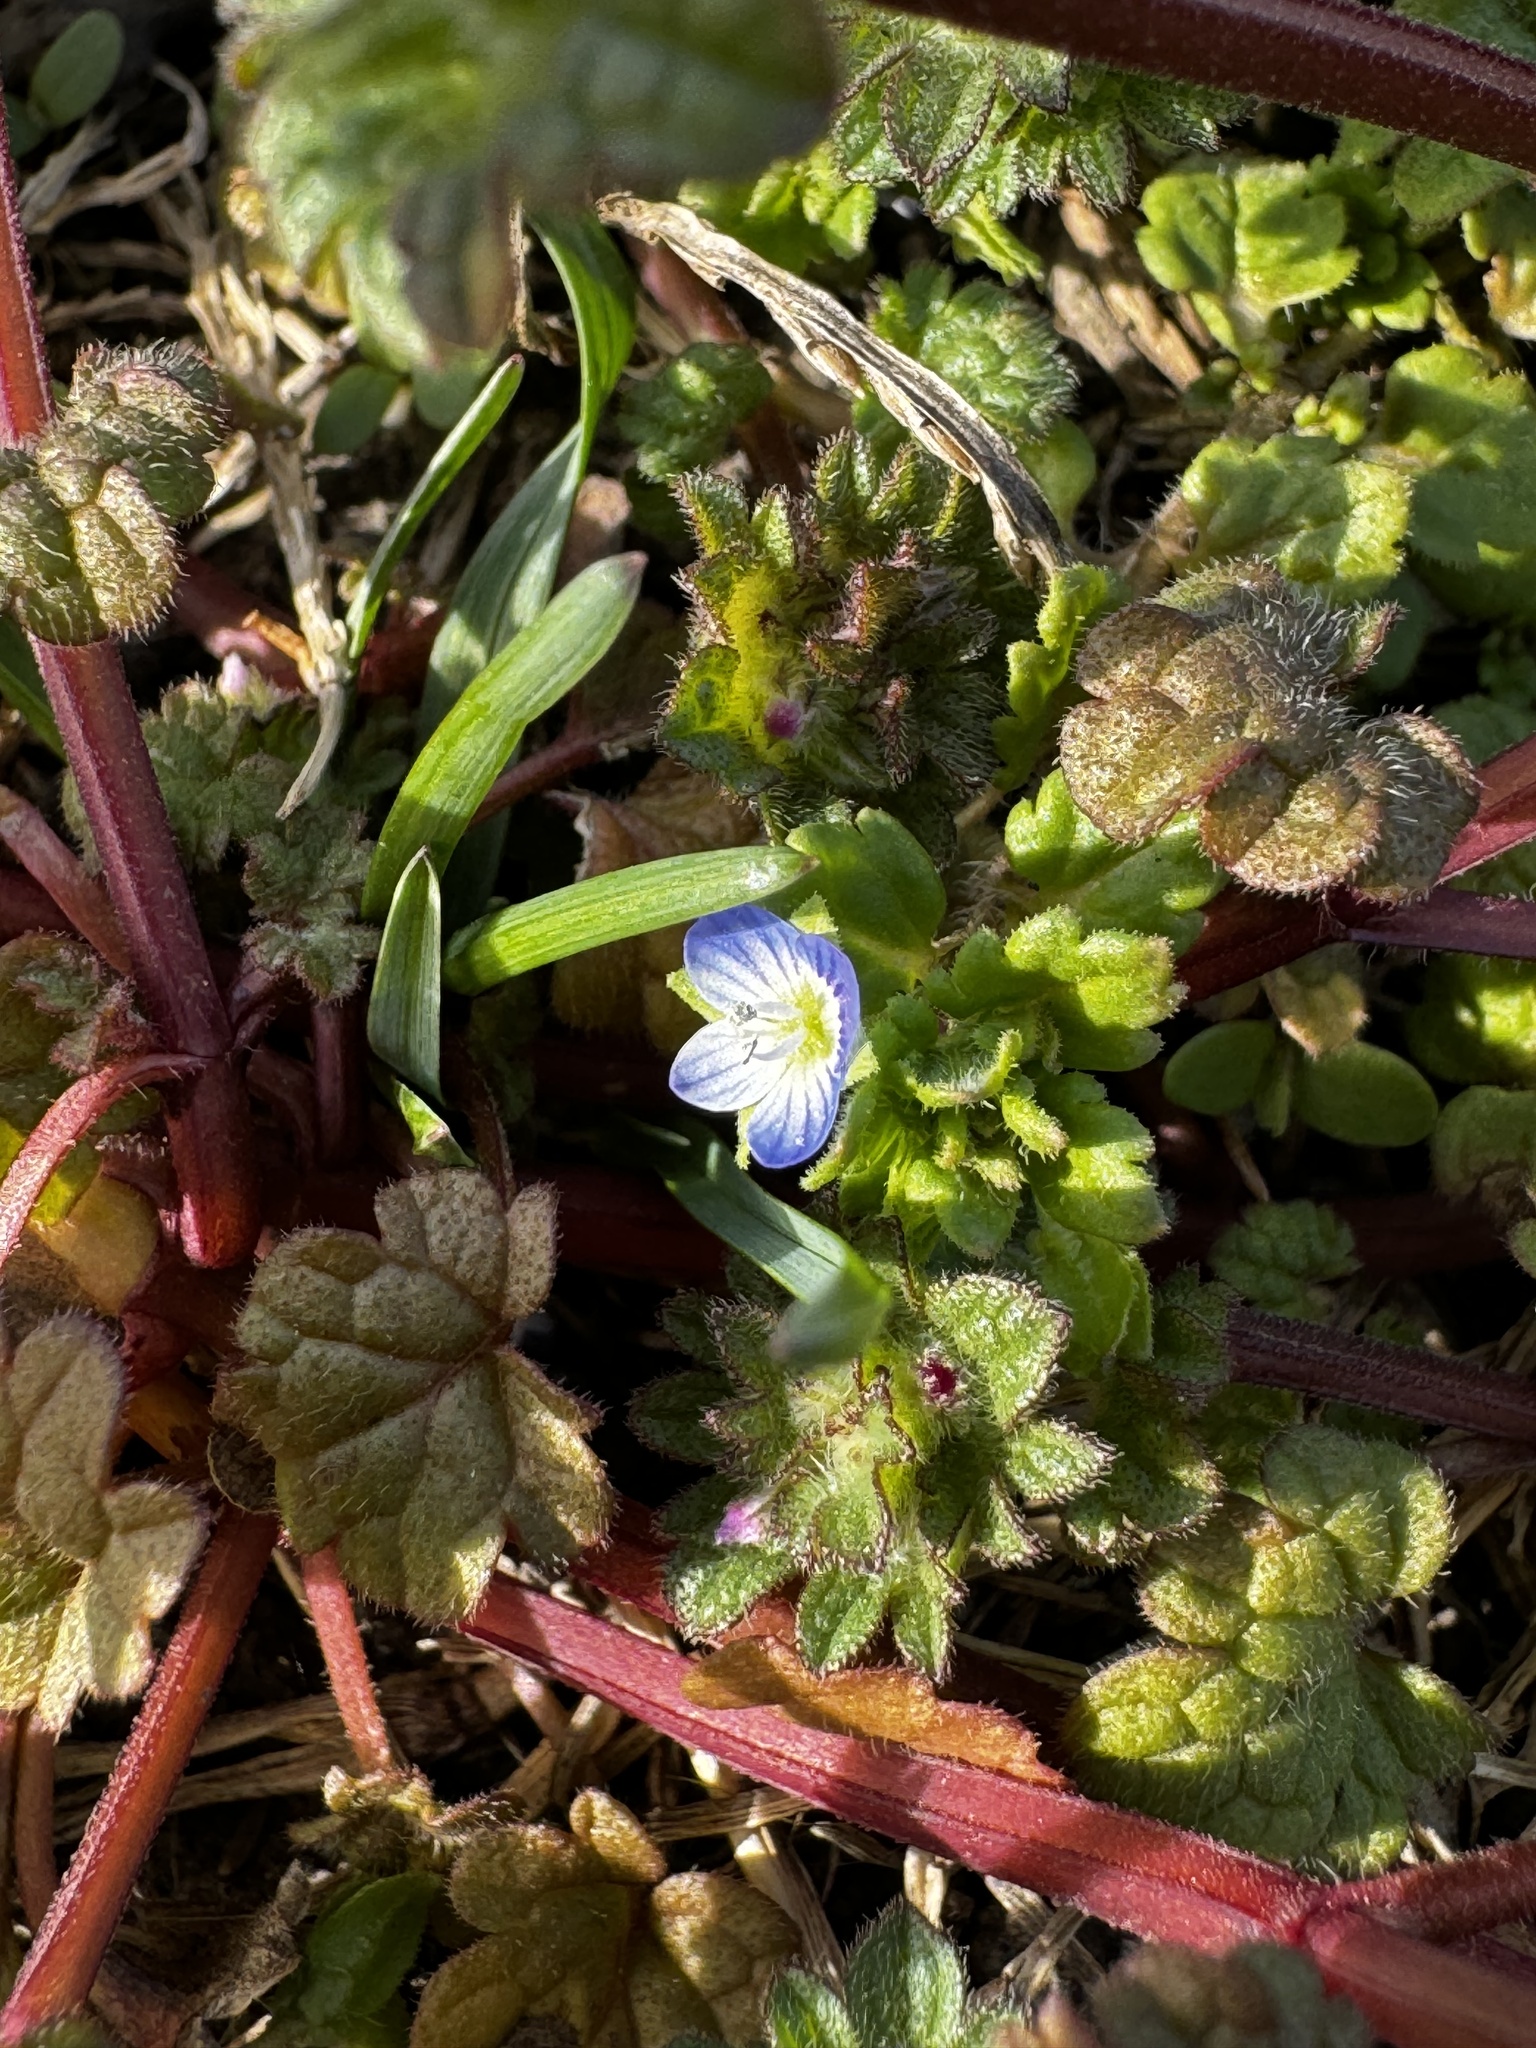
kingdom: Plantae
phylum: Tracheophyta
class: Magnoliopsida
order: Lamiales
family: Plantaginaceae
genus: Veronica
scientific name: Veronica polita
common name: Grey field-speedwell
